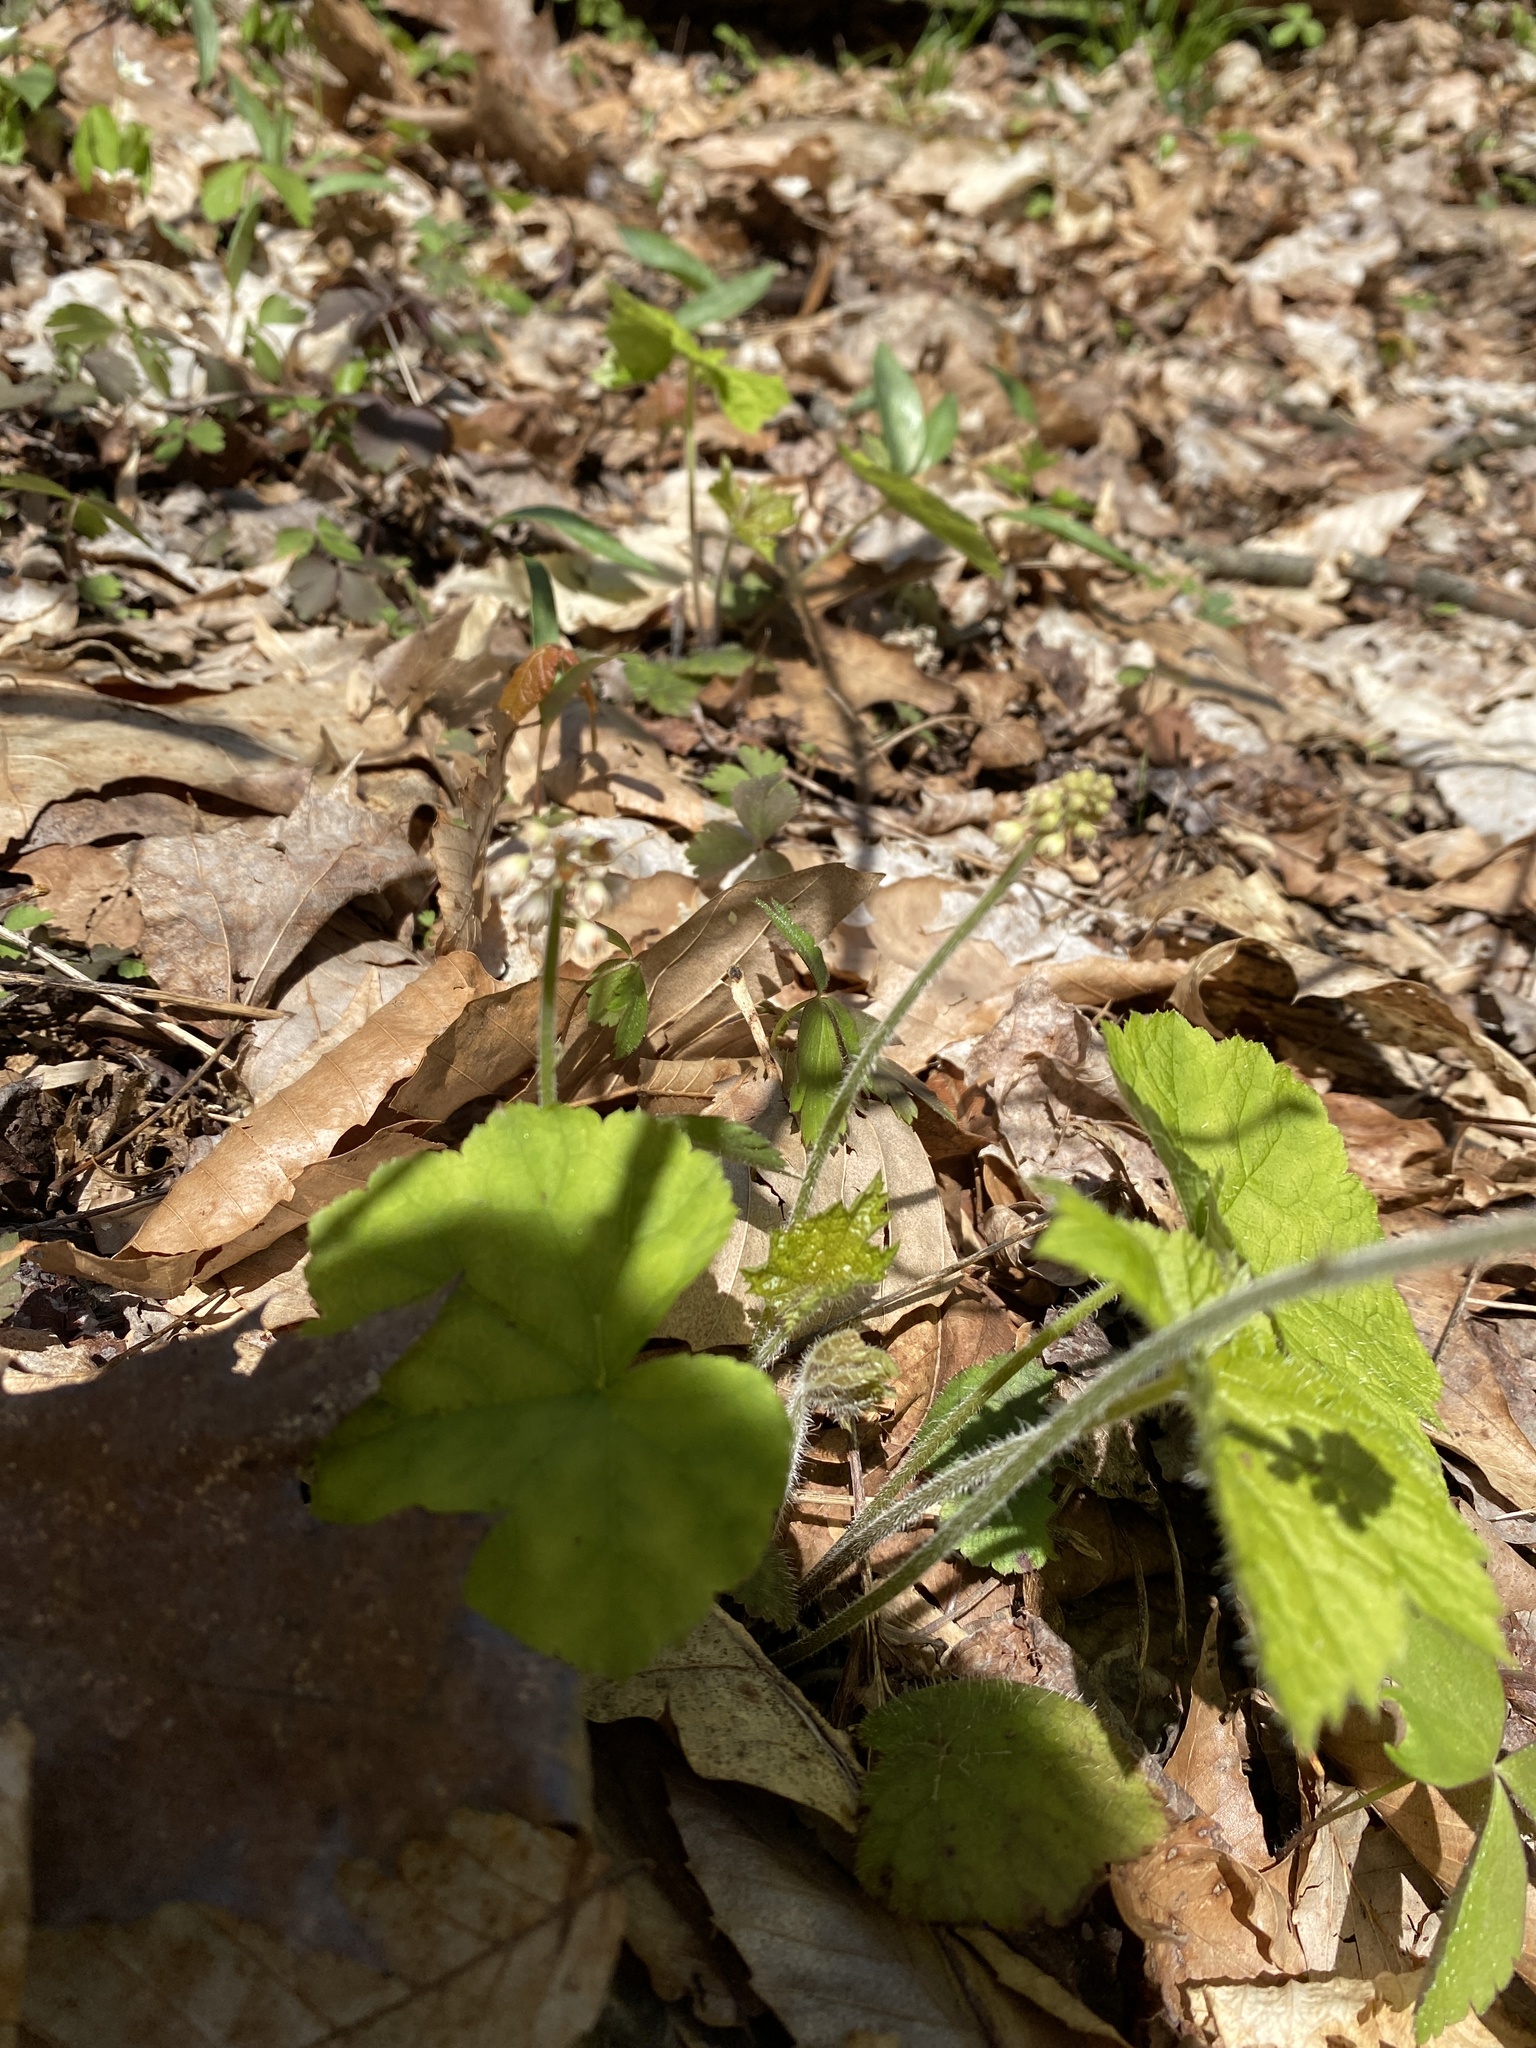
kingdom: Plantae
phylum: Tracheophyta
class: Magnoliopsida
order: Saxifragales
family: Saxifragaceae
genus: Tiarella
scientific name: Tiarella stolonifera
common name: Stoloniferous foamflower
